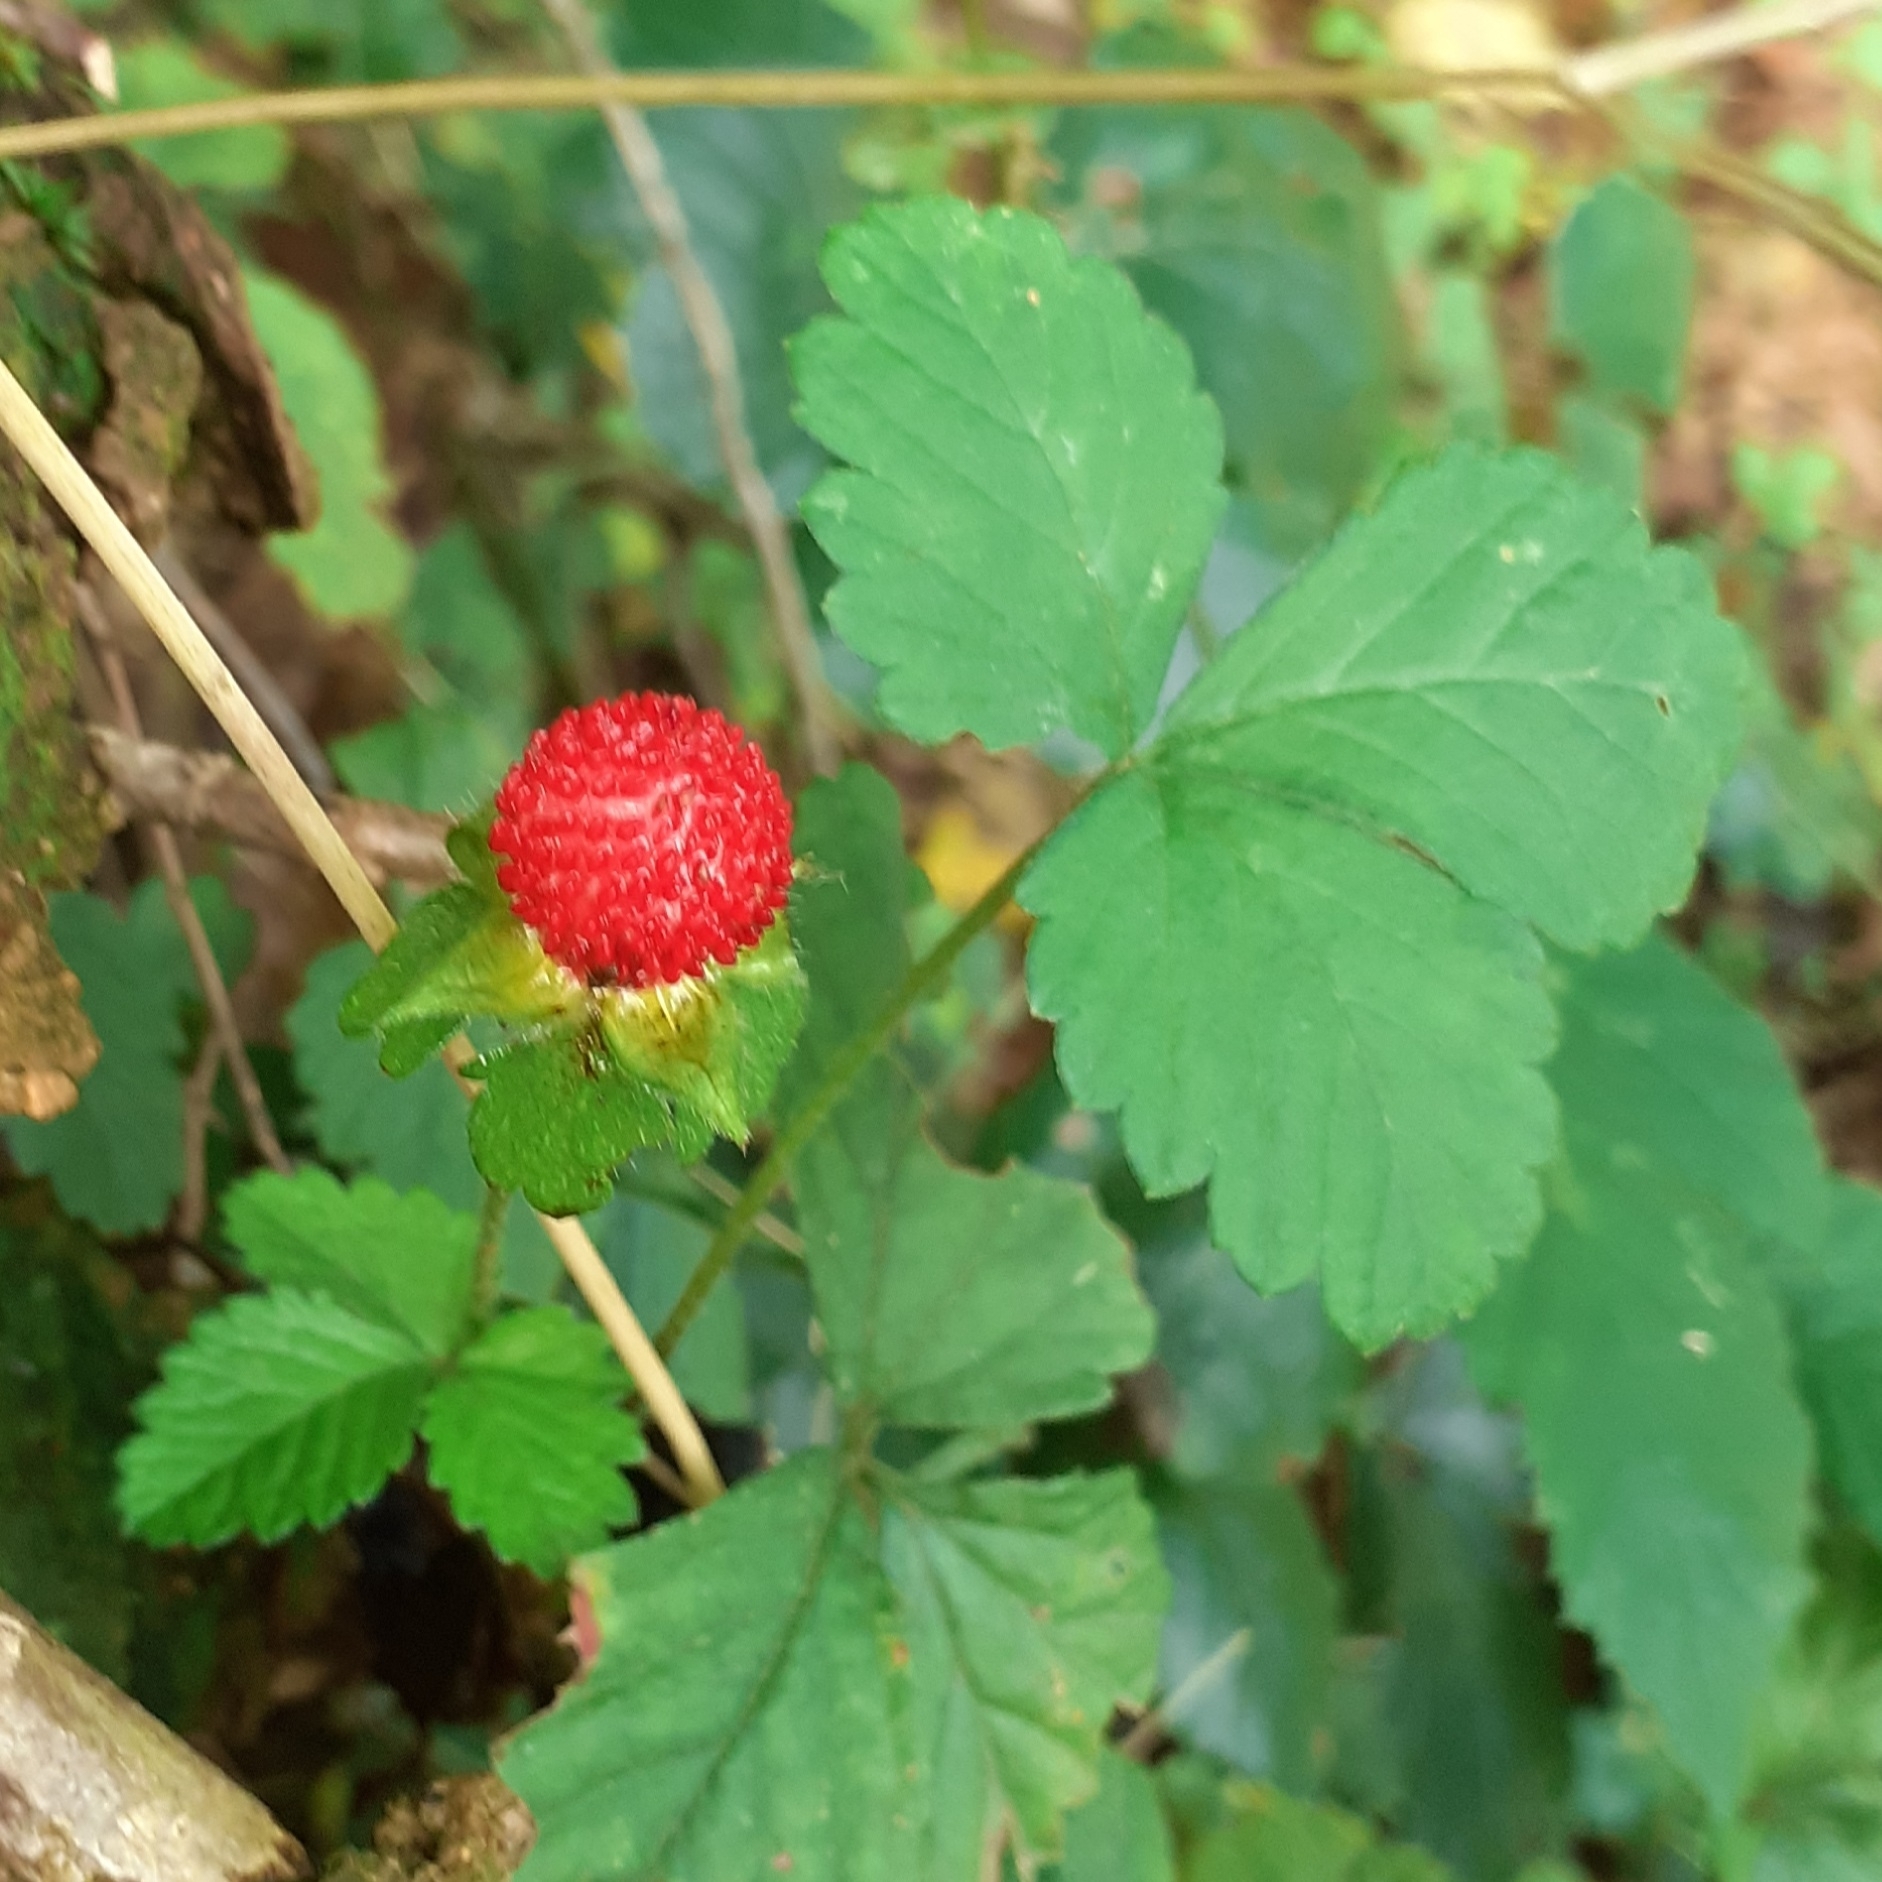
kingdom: Plantae
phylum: Tracheophyta
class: Magnoliopsida
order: Rosales
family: Rosaceae
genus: Potentilla
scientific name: Potentilla indica
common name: Yellow-flowered strawberry
